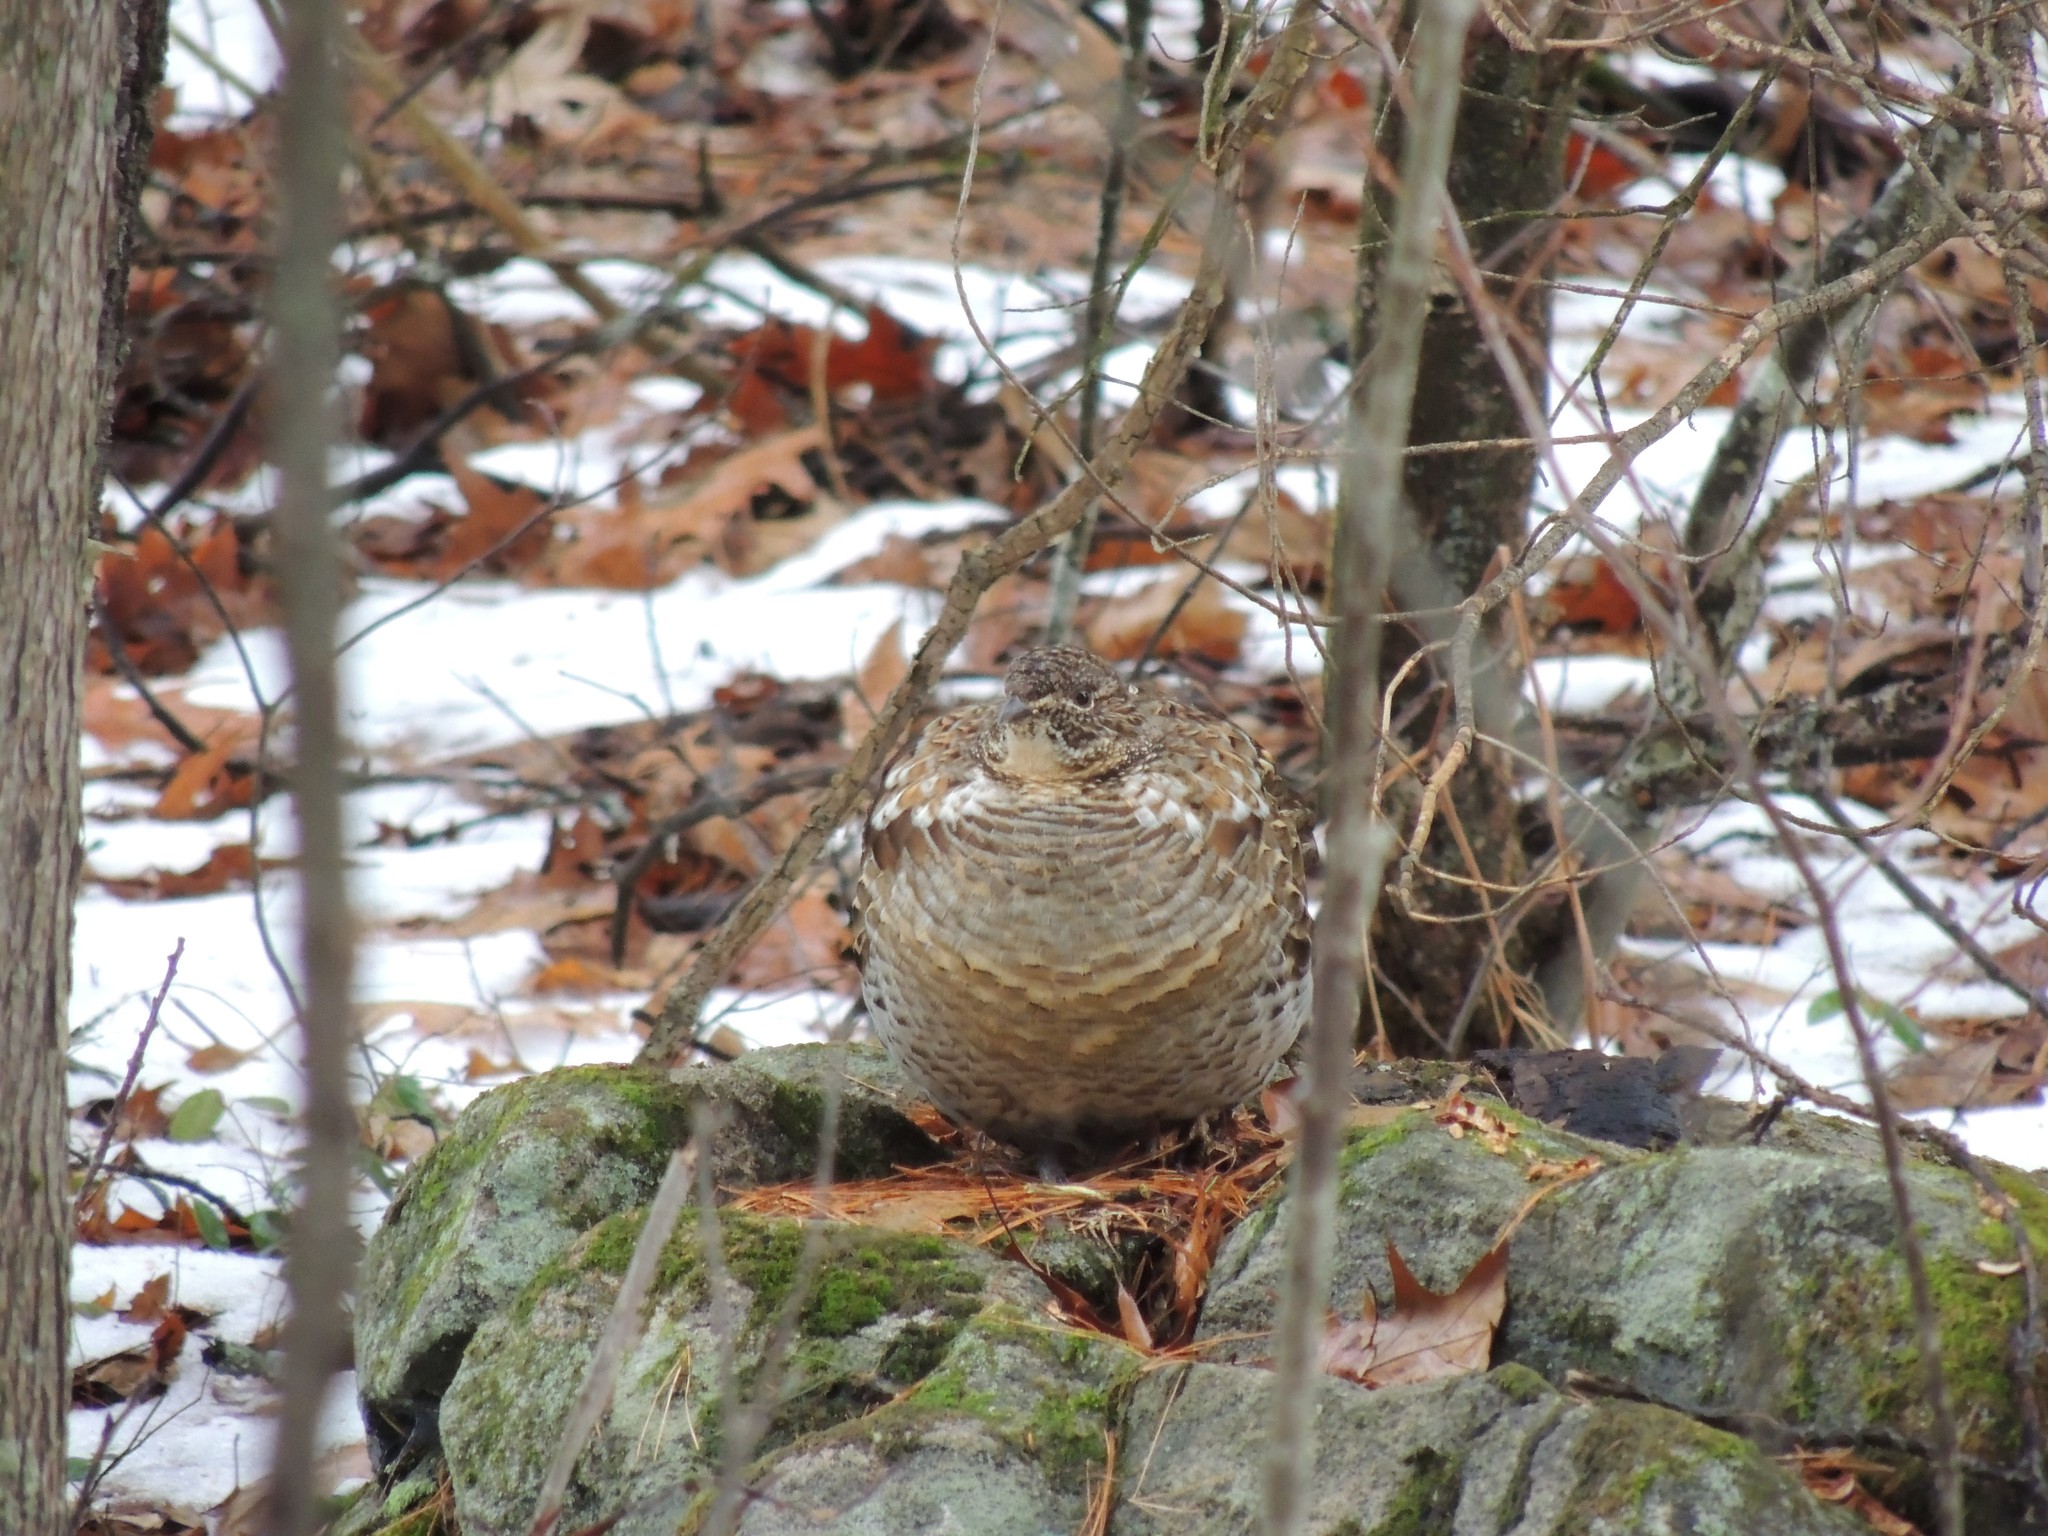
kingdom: Animalia
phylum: Chordata
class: Aves
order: Galliformes
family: Phasianidae
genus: Bonasa
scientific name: Bonasa umbellus
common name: Ruffed grouse
